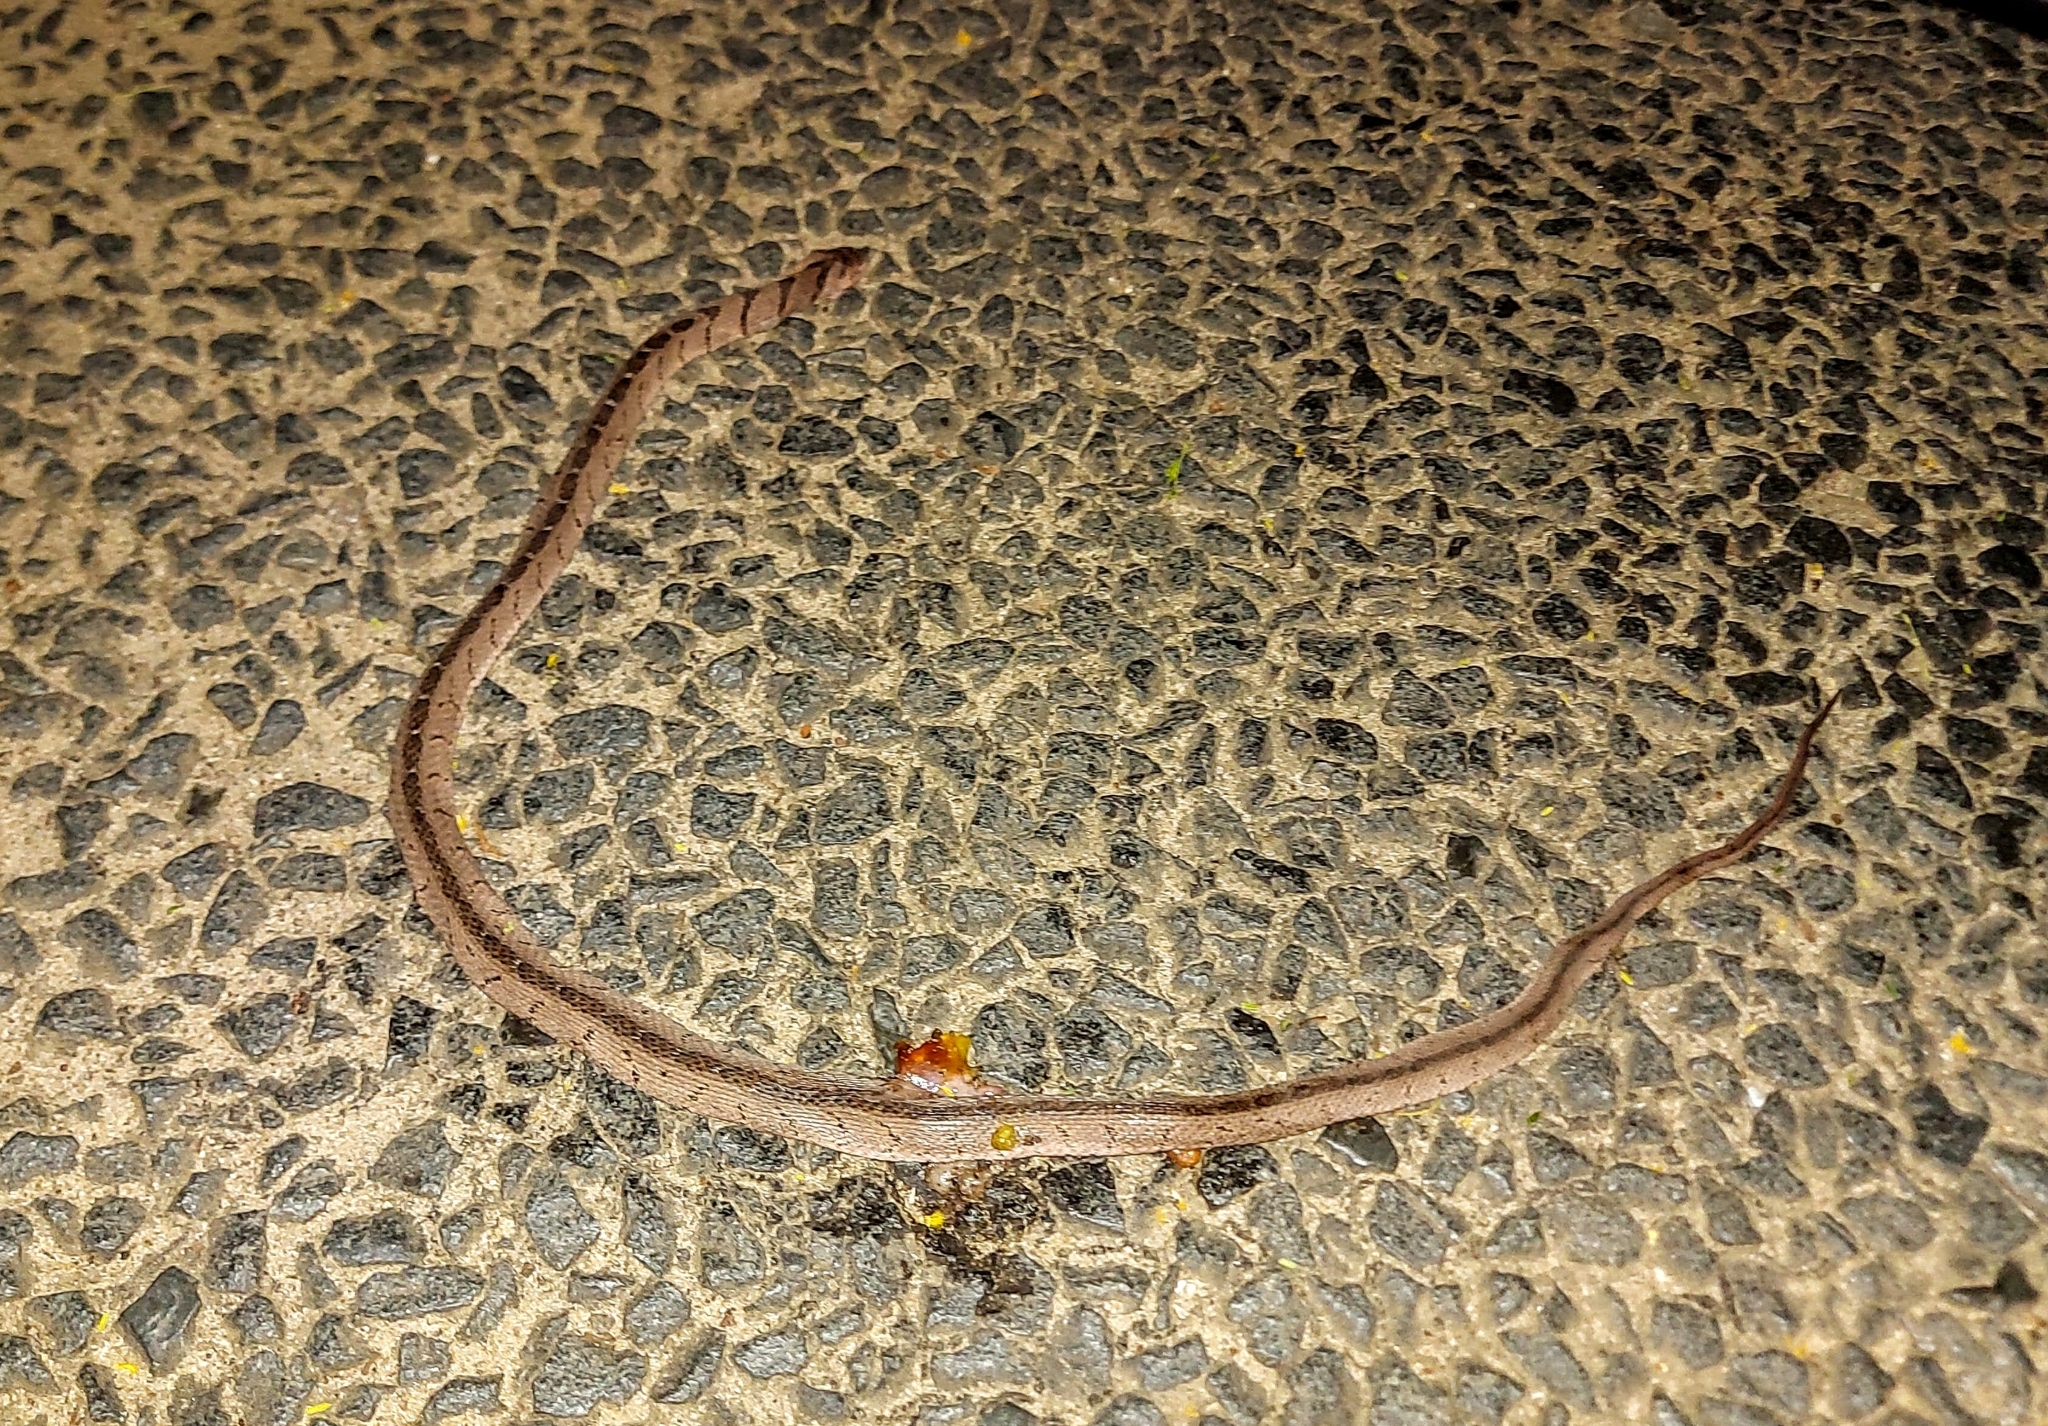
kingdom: Animalia
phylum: Chordata
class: Squamata
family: Colubridae
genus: Dasypeltis
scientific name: Dasypeltis medici
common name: East african egg eater
